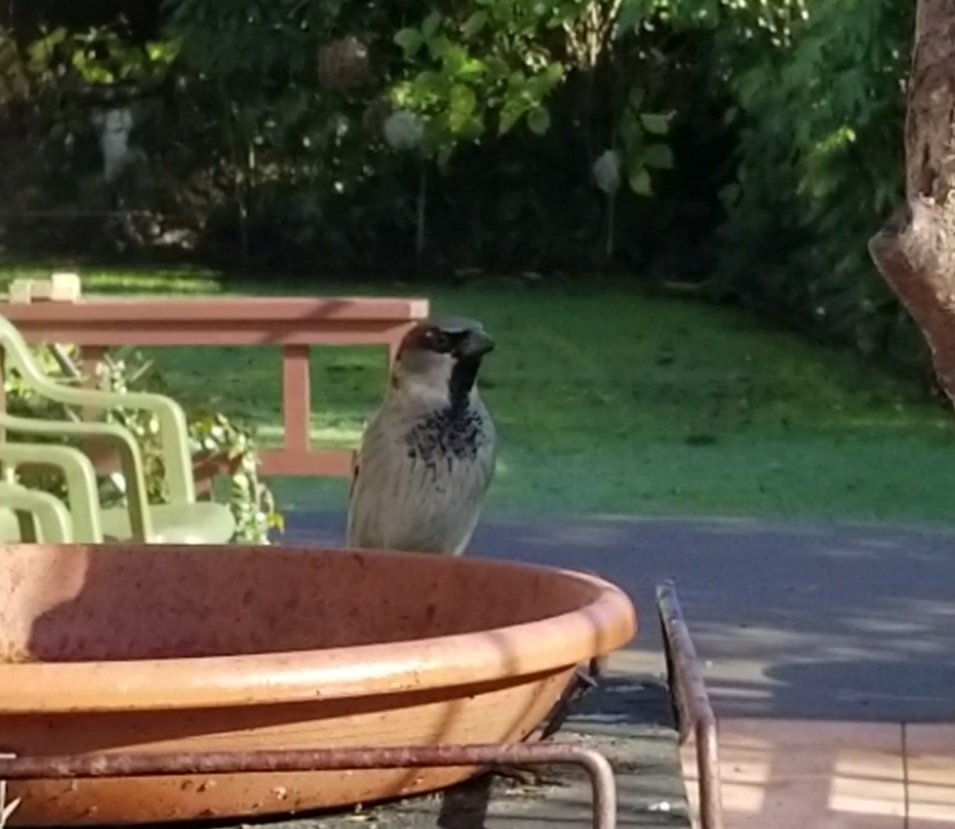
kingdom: Animalia
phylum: Chordata
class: Aves
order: Passeriformes
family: Passeridae
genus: Passer
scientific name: Passer domesticus
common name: House sparrow
